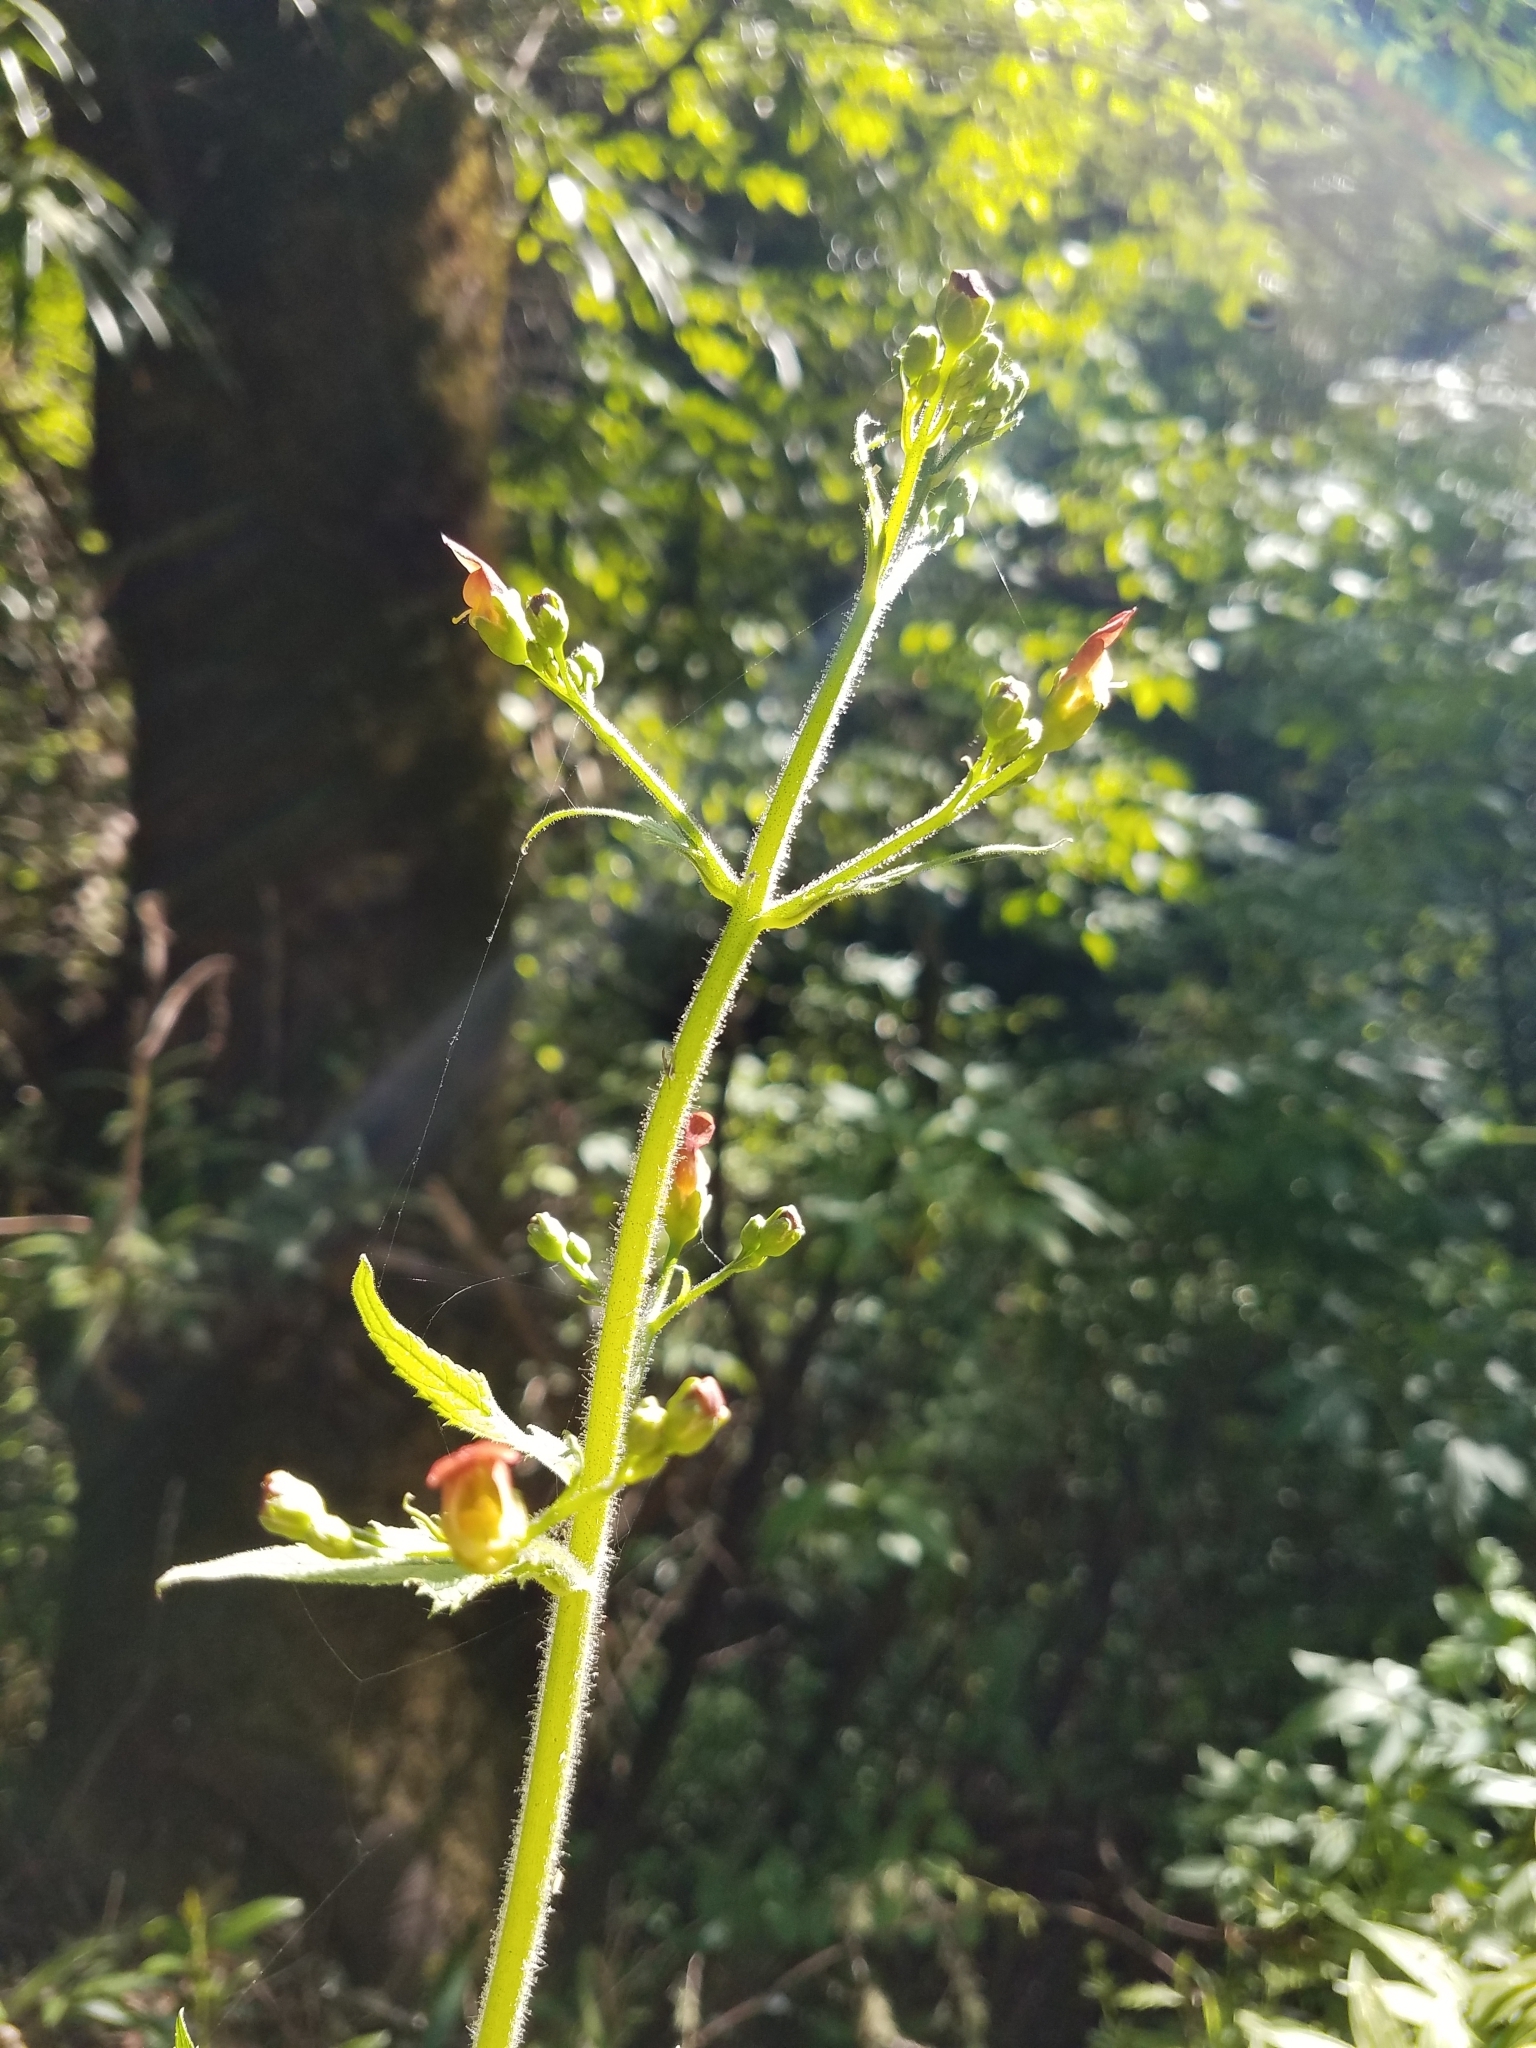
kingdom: Plantae
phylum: Tracheophyta
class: Magnoliopsida
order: Lamiales
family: Scrophulariaceae
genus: Scrophularia
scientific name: Scrophularia californica
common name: California figwort
